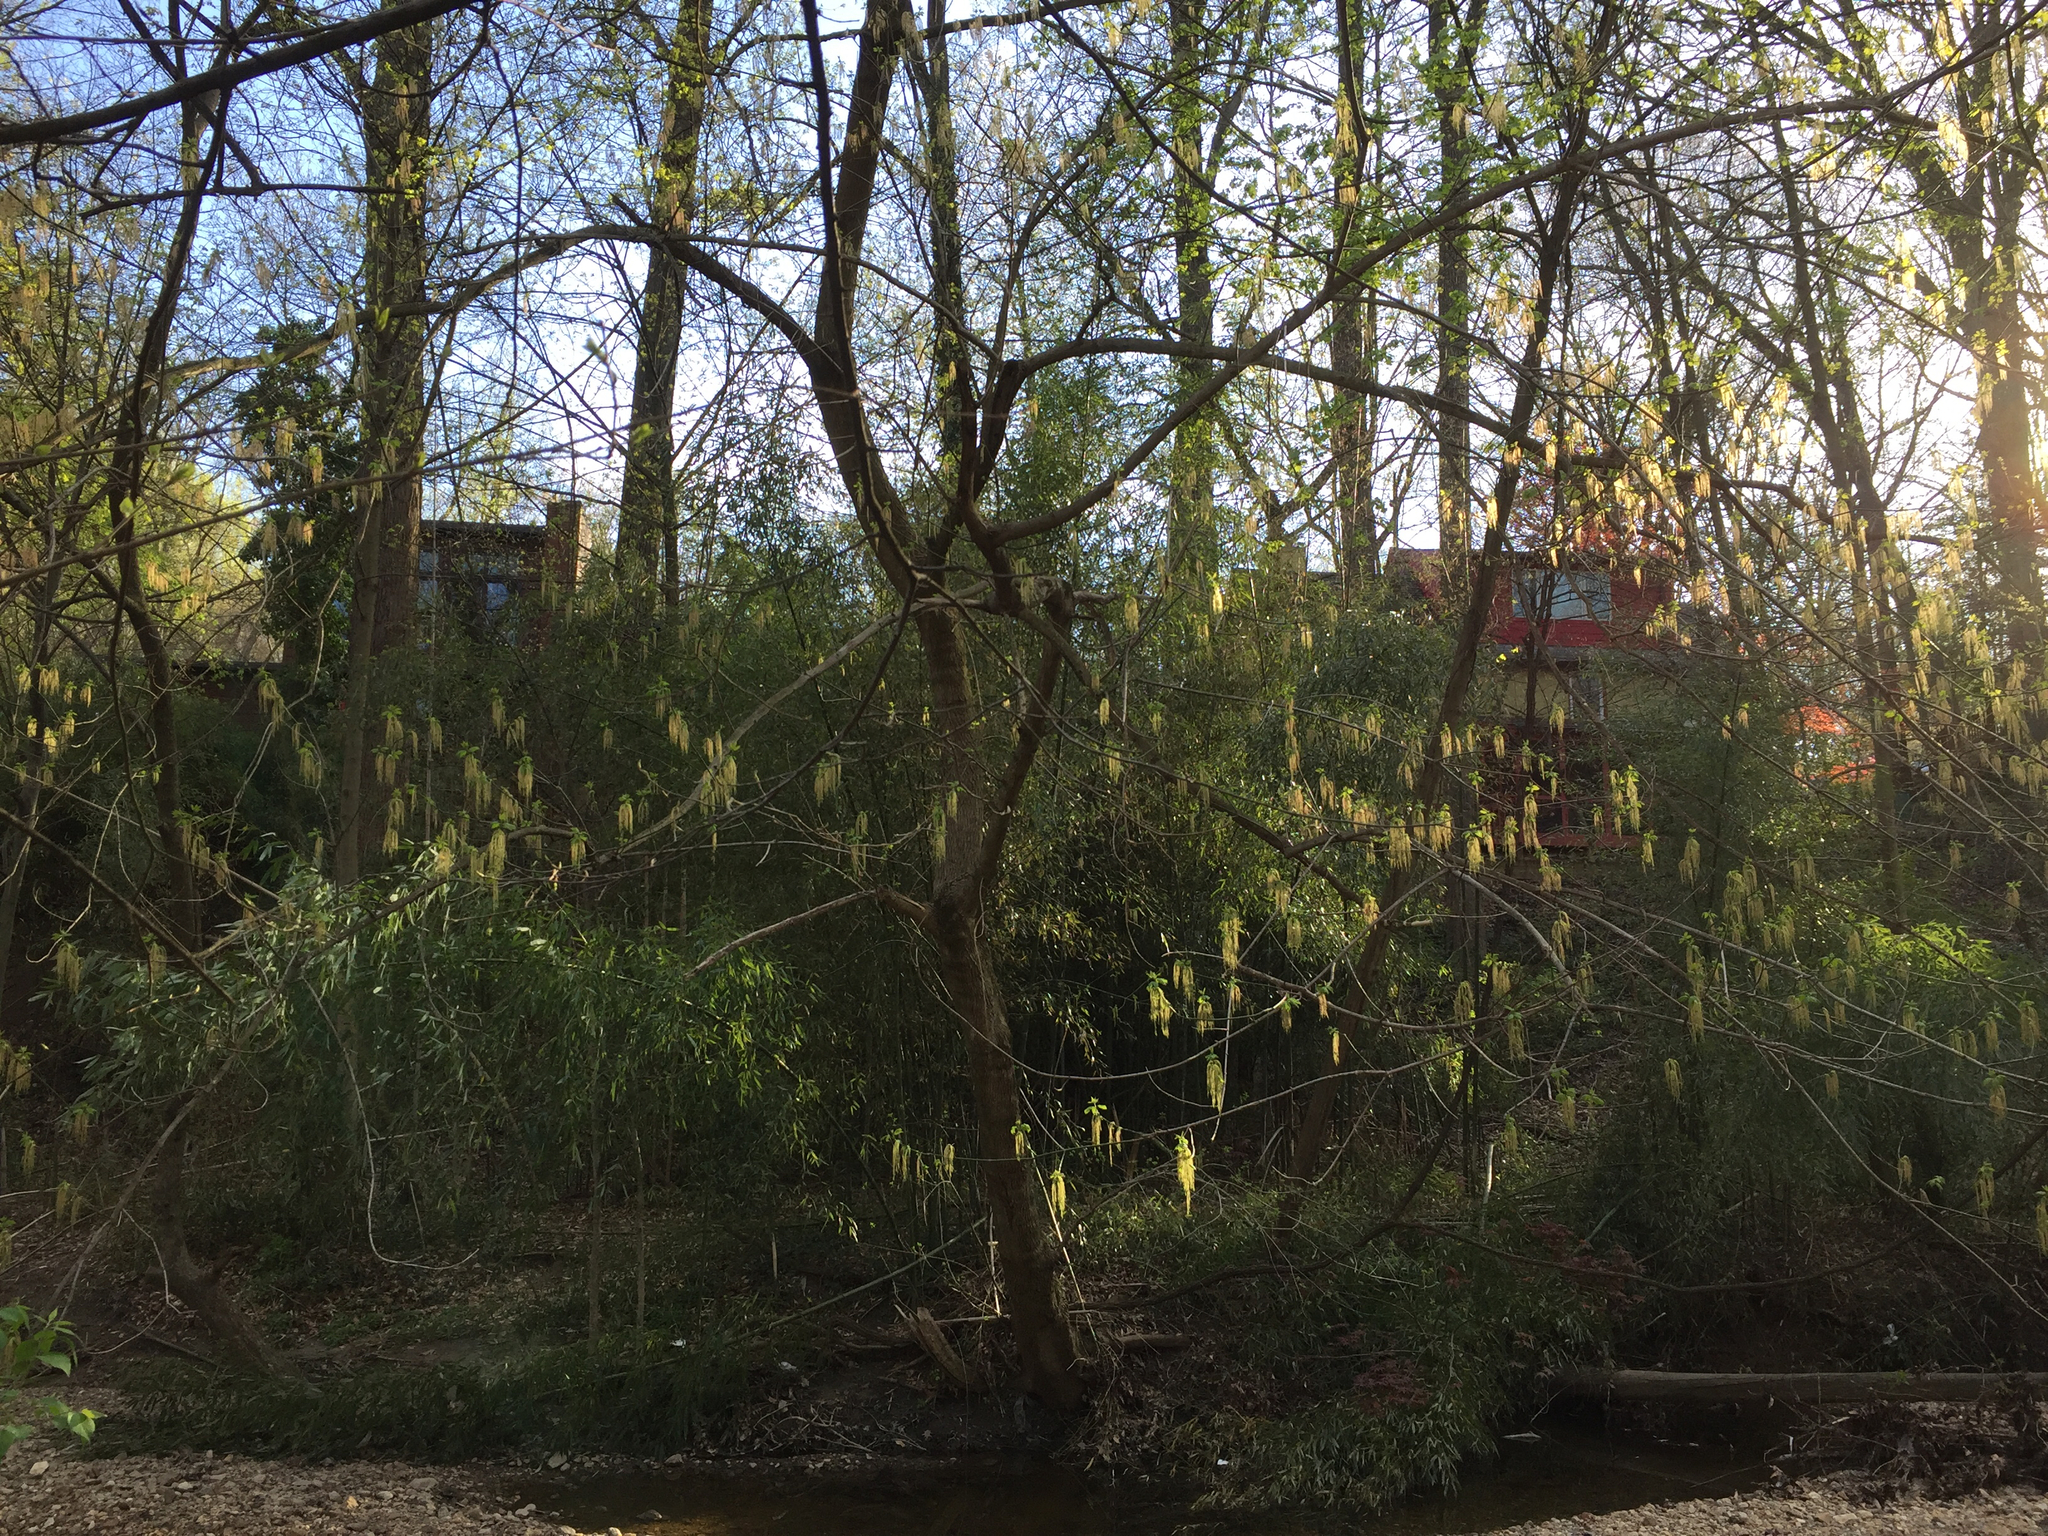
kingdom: Plantae
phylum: Tracheophyta
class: Magnoliopsida
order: Sapindales
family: Sapindaceae
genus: Acer
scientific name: Acer negundo
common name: Ashleaf maple
